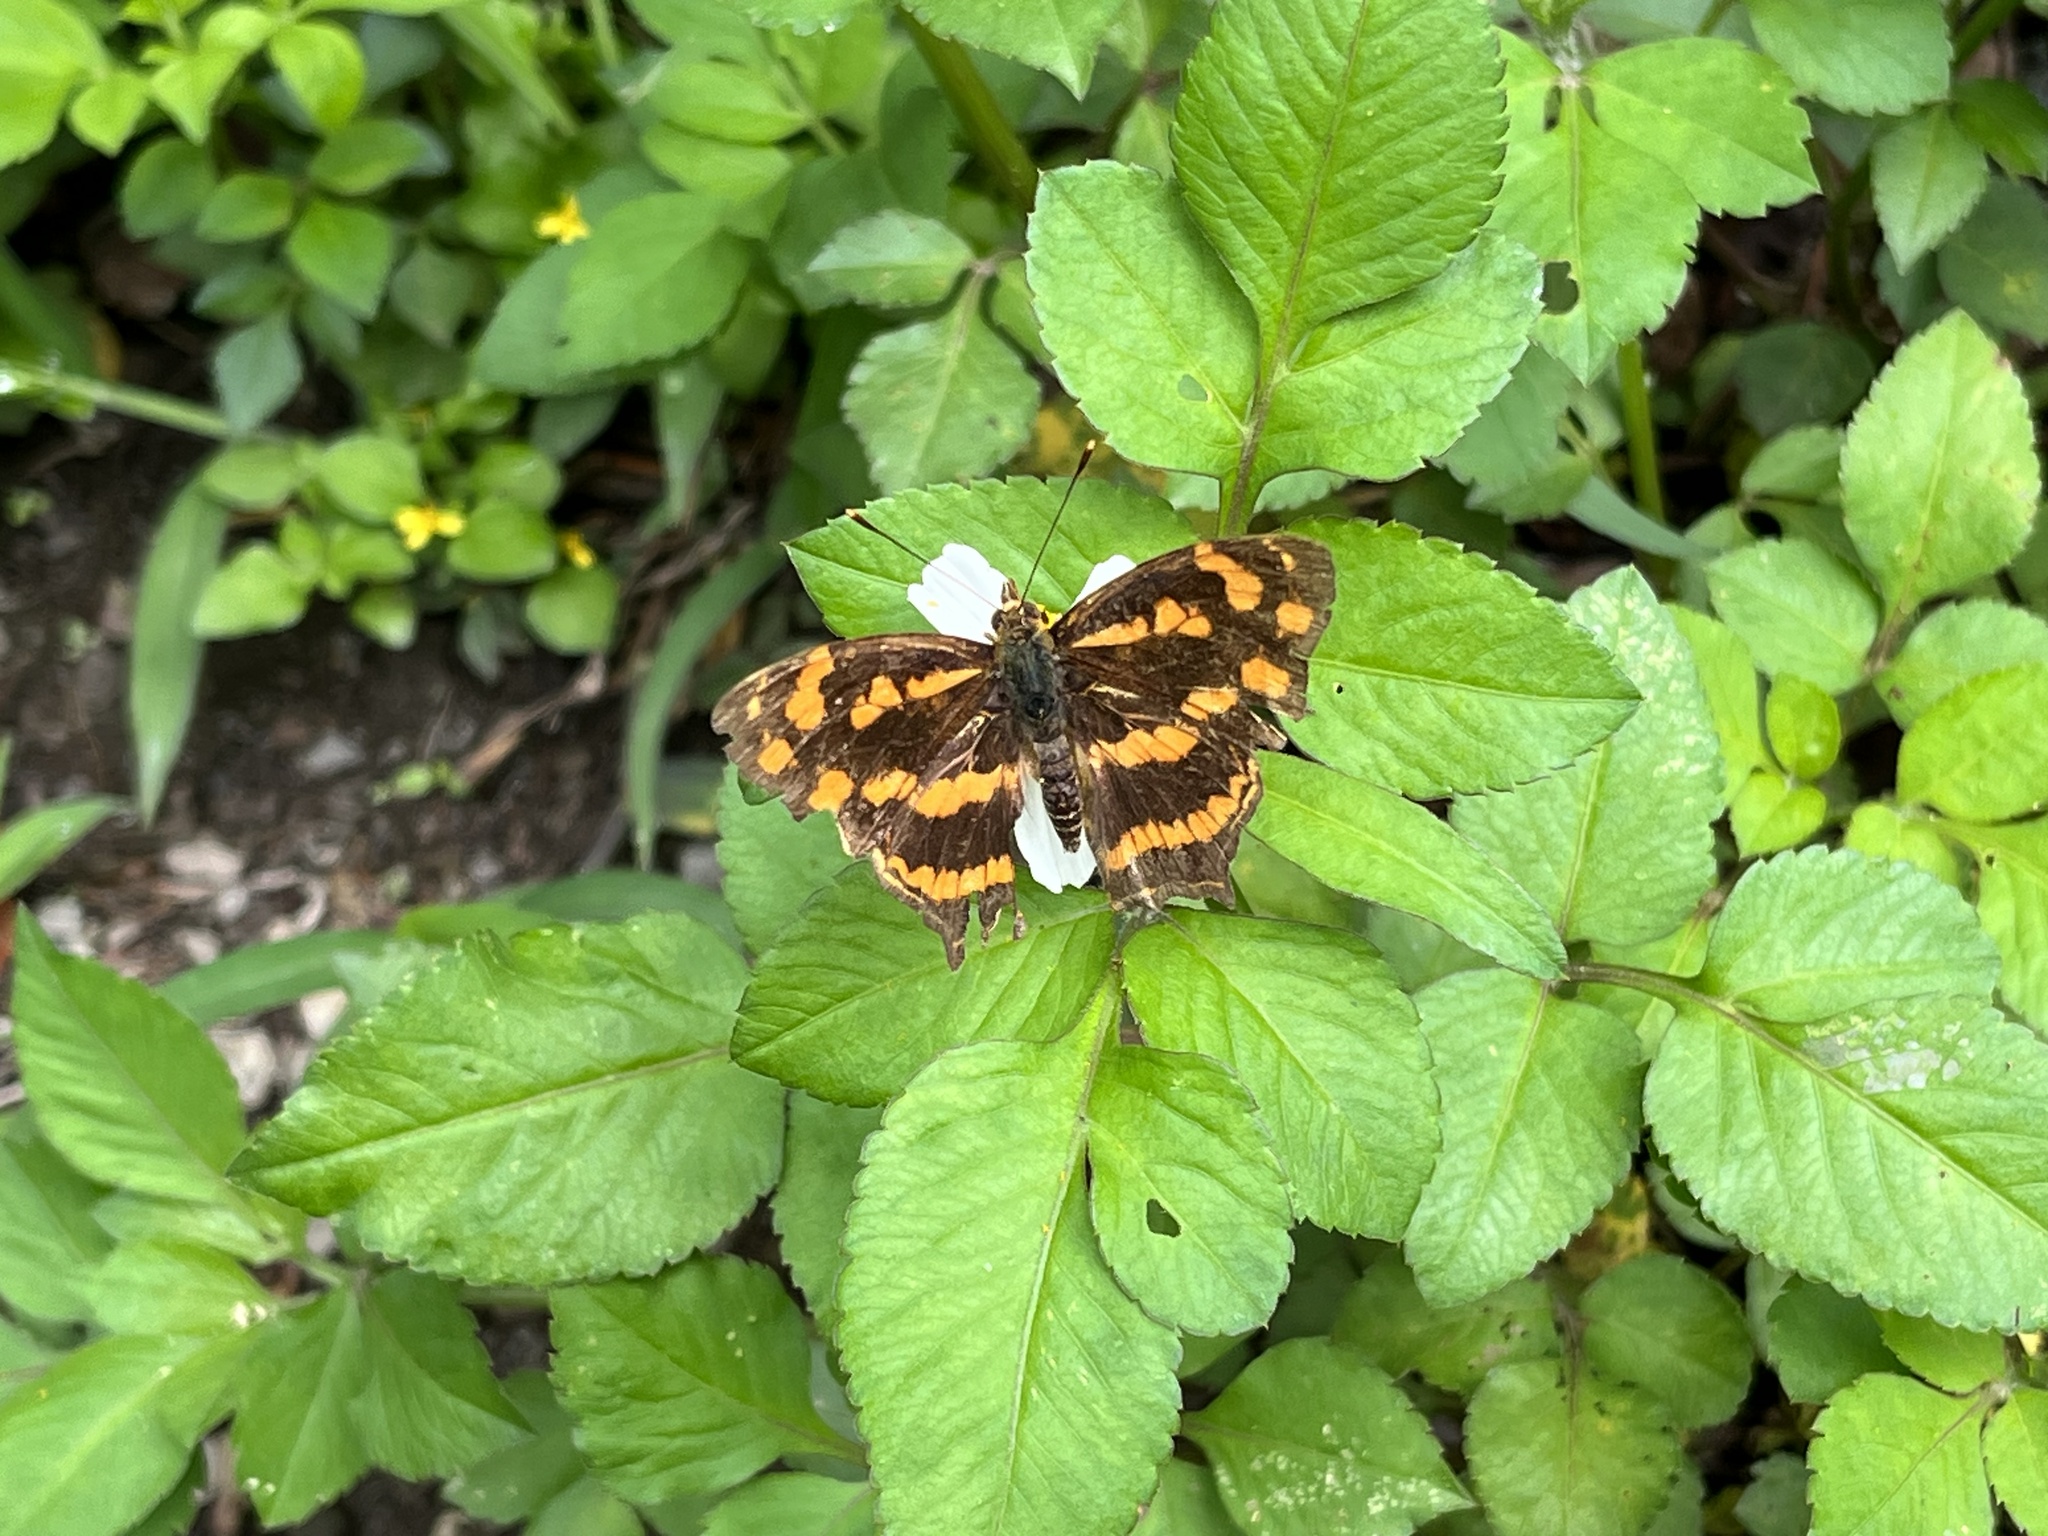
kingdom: Animalia
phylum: Arthropoda
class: Insecta
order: Lepidoptera
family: Nymphalidae
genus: Symbrenthia
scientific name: Symbrenthia hypselis
